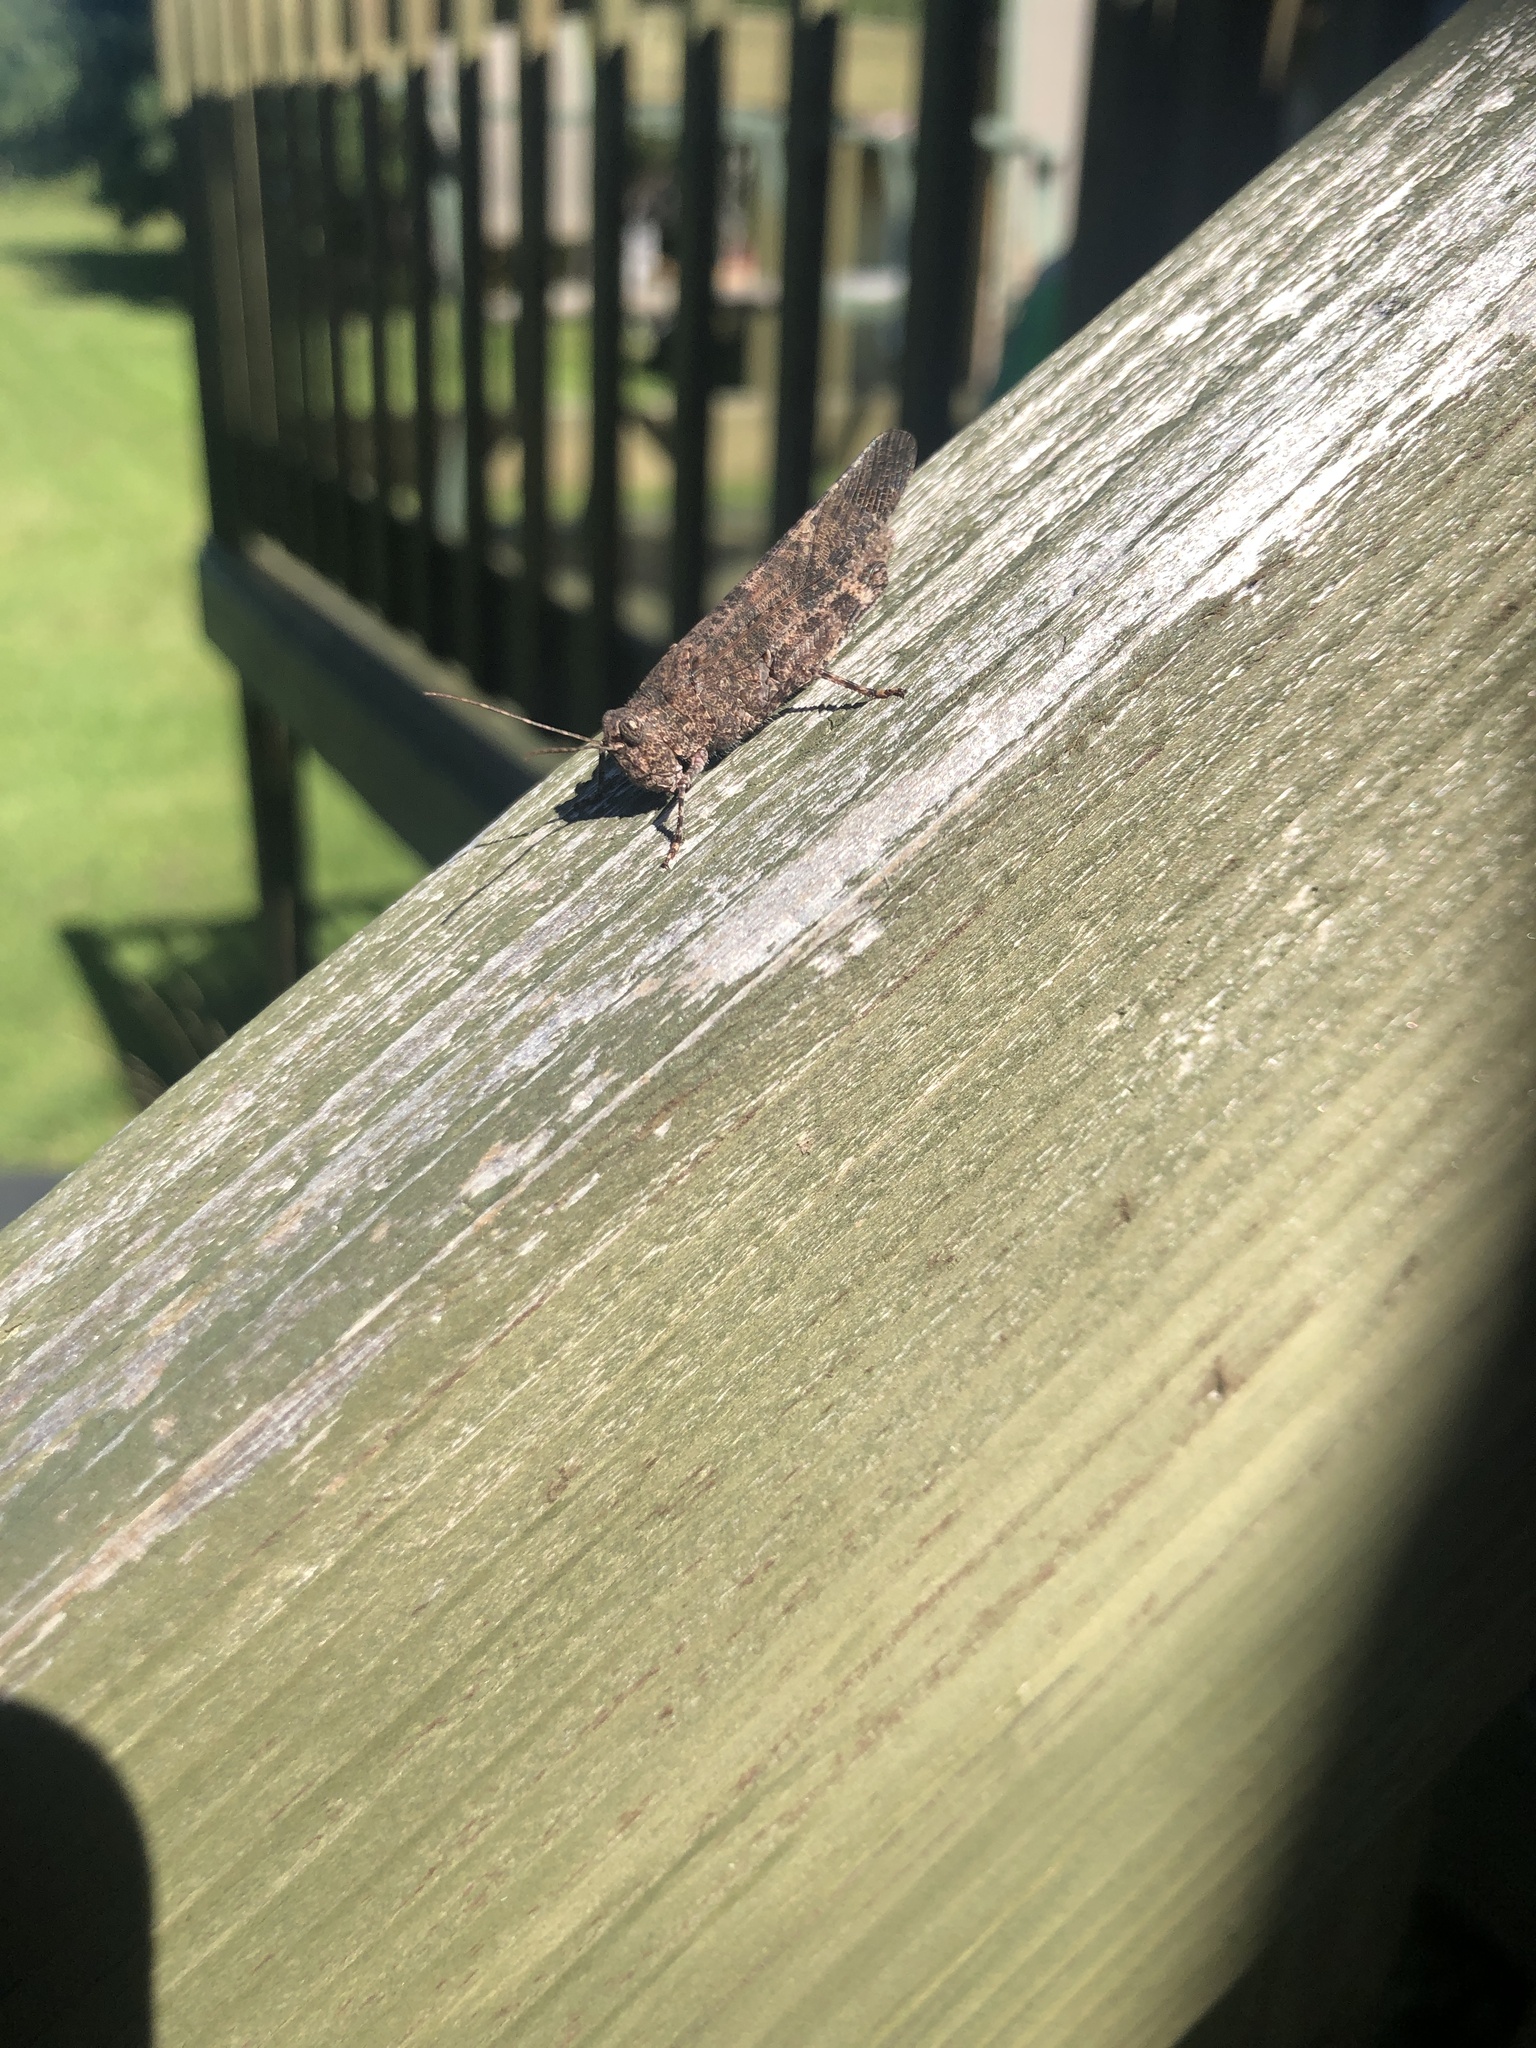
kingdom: Animalia
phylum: Arthropoda
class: Insecta
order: Orthoptera
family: Acrididae
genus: Trimerotropis
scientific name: Trimerotropis verruculata
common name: Crackling forest grasshopper
